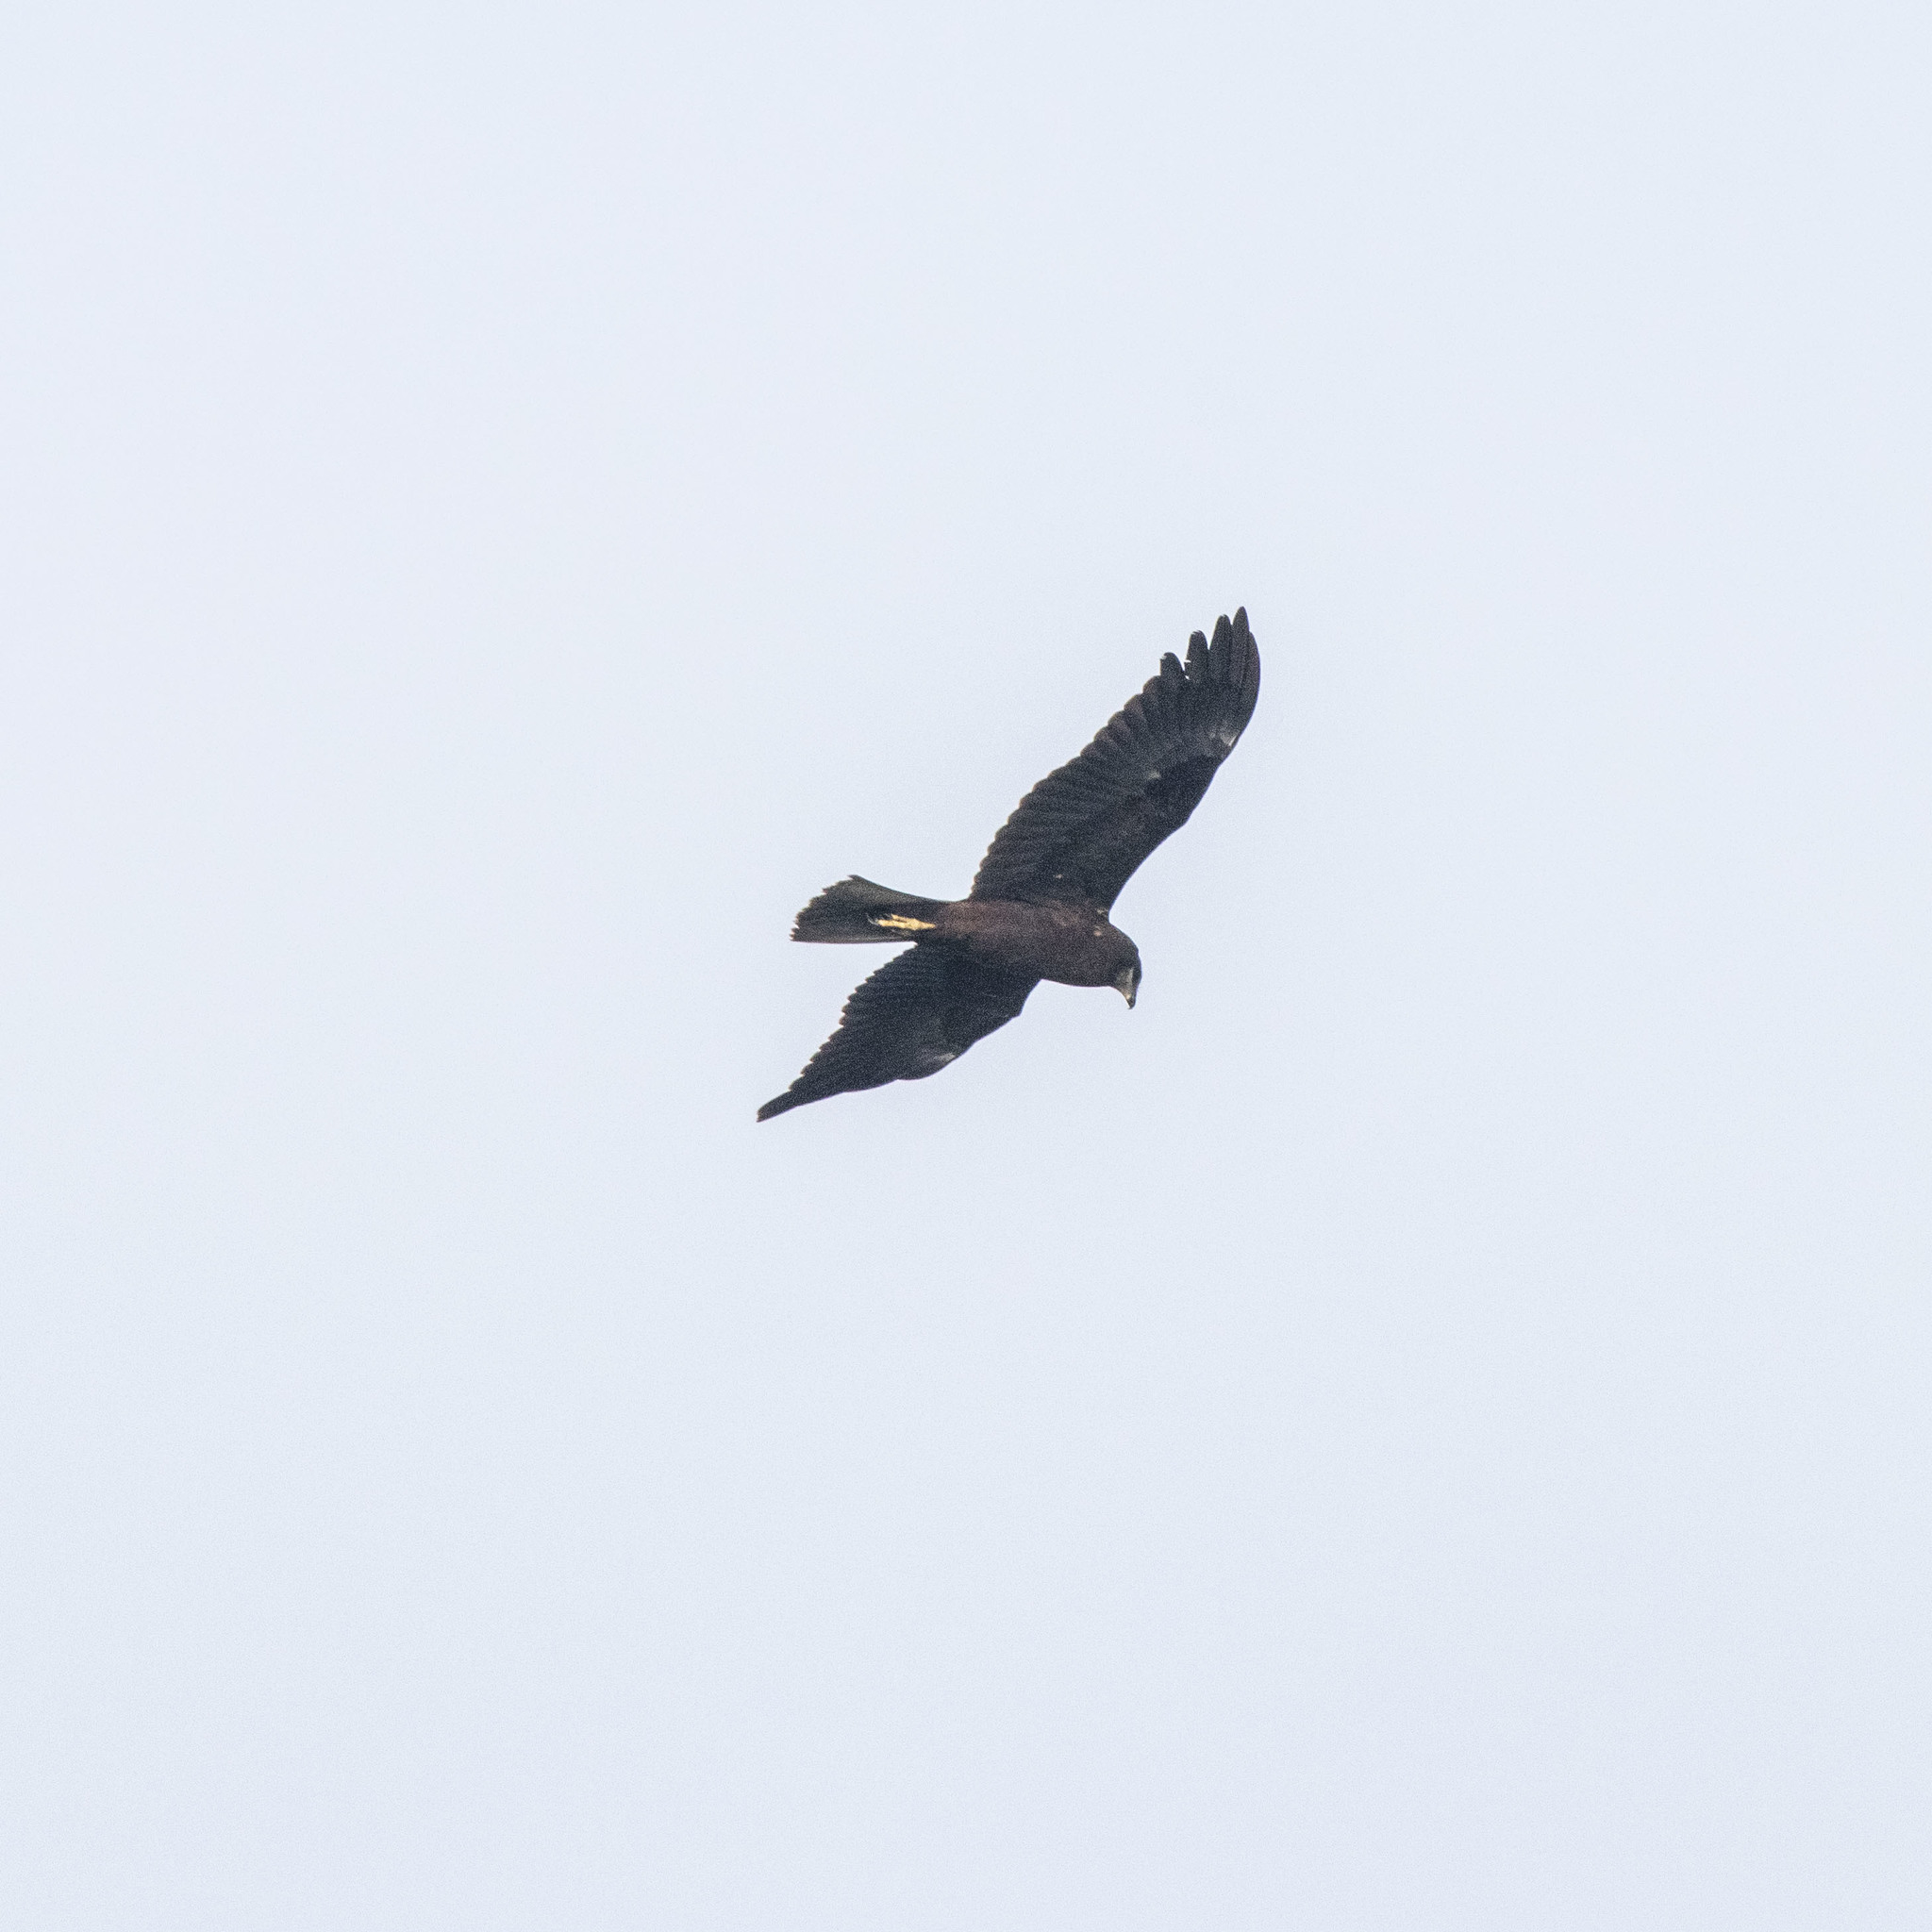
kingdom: Animalia
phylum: Chordata
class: Aves
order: Accipitriformes
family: Accipitridae
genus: Hieraaetus
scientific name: Hieraaetus pennatus
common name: Booted eagle
